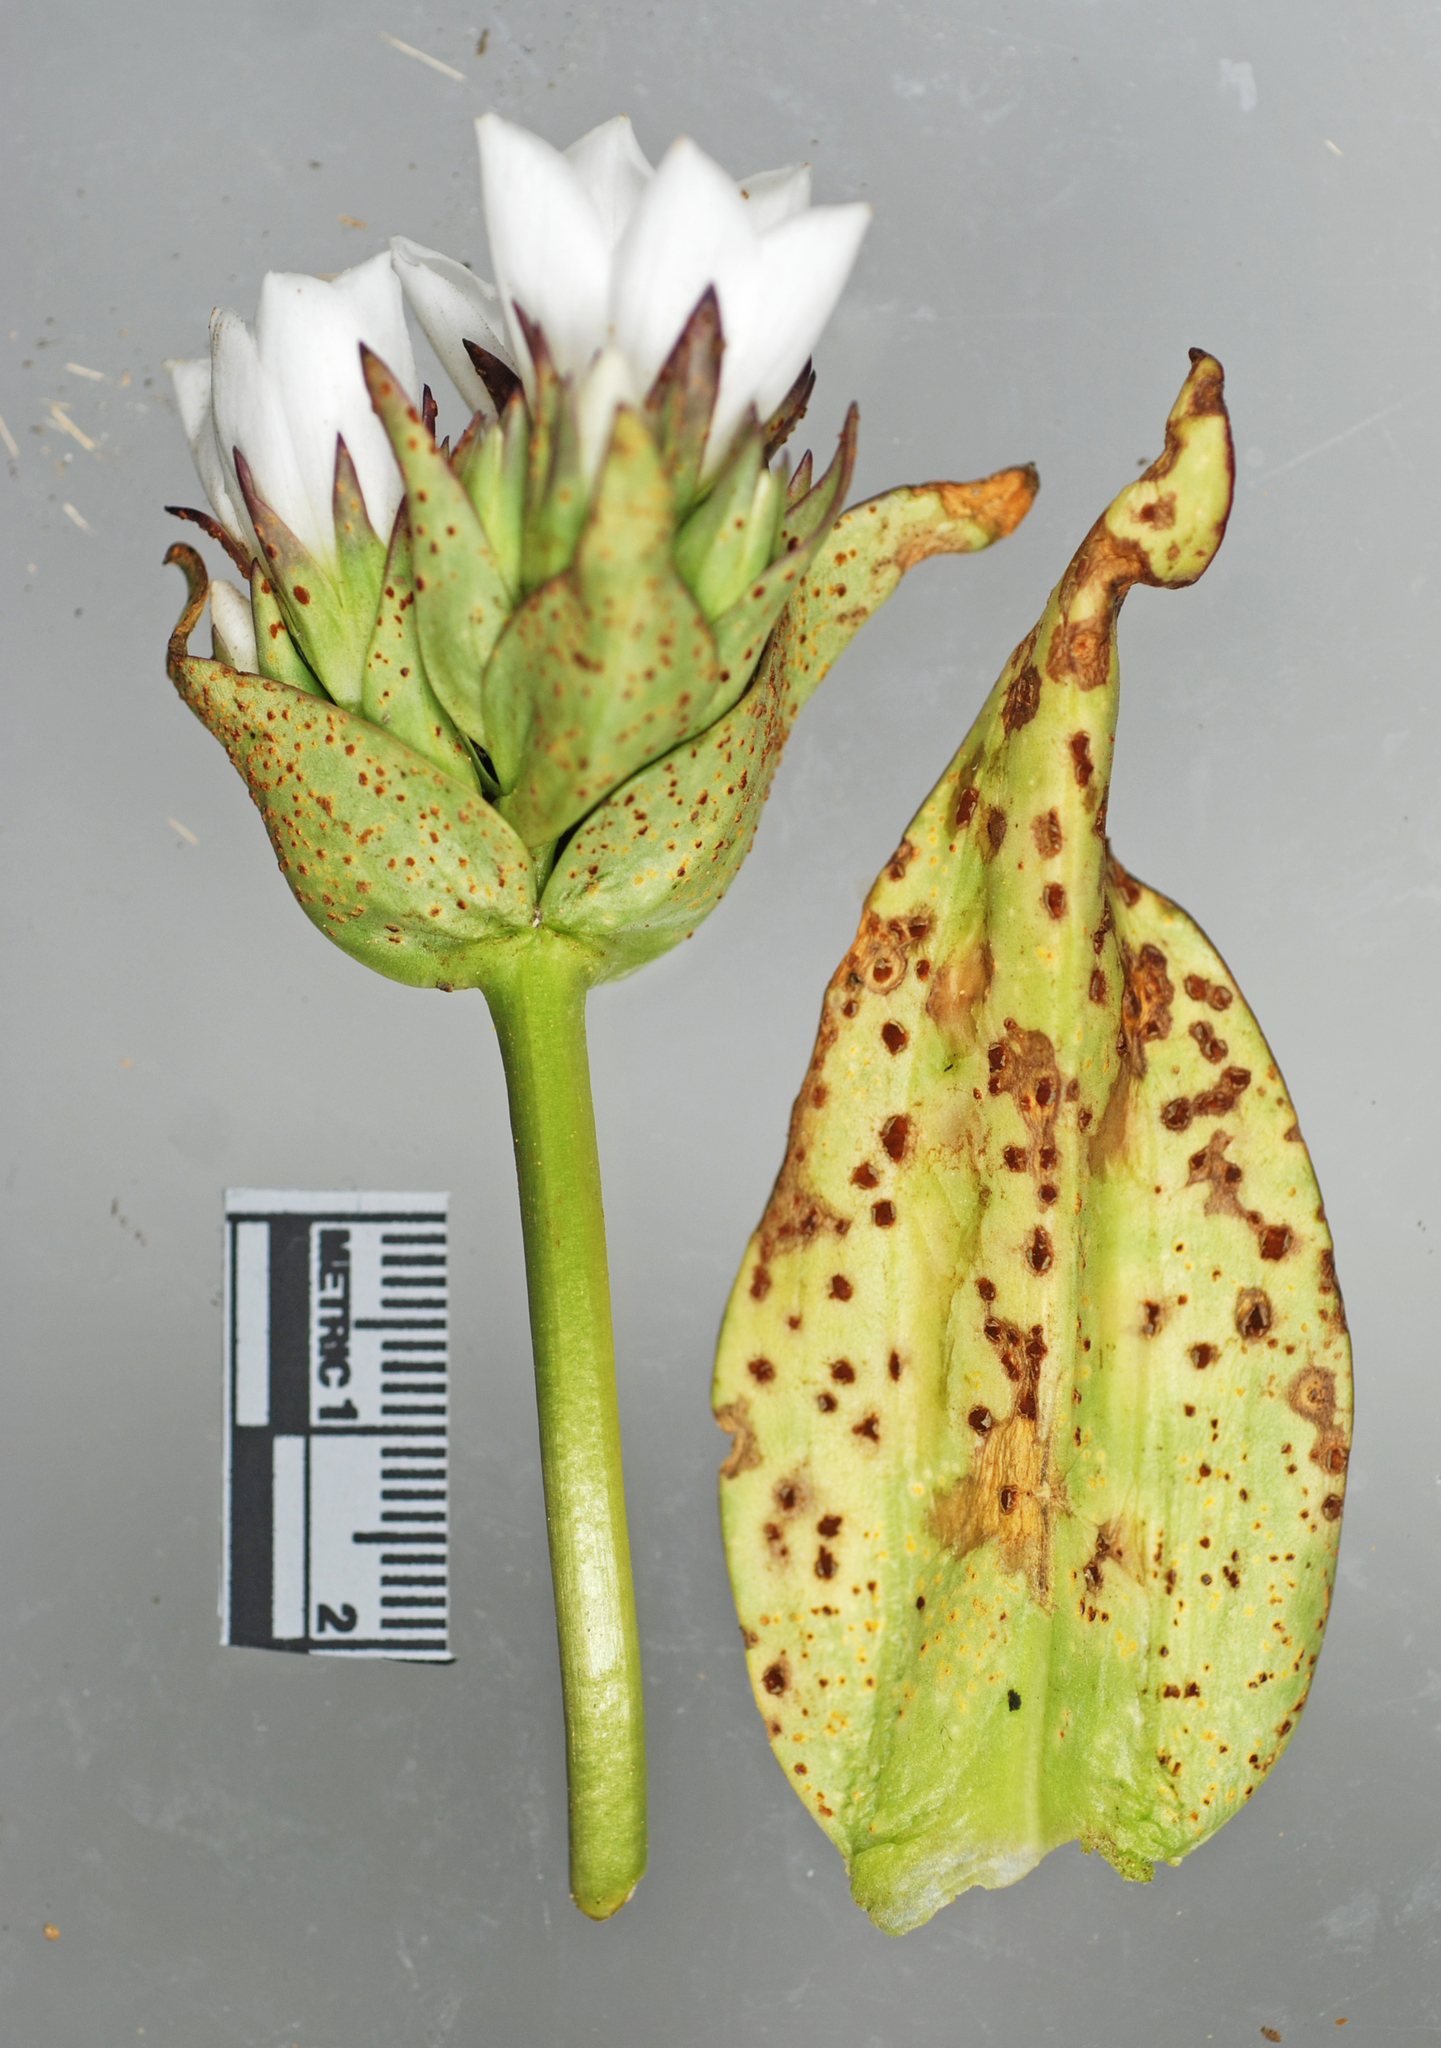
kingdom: Fungi
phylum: Basidiomycota
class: Pucciniomycetes
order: Pucciniales
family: Pucciniaceae
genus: Puccinia
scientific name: Puccinia cockaynei
